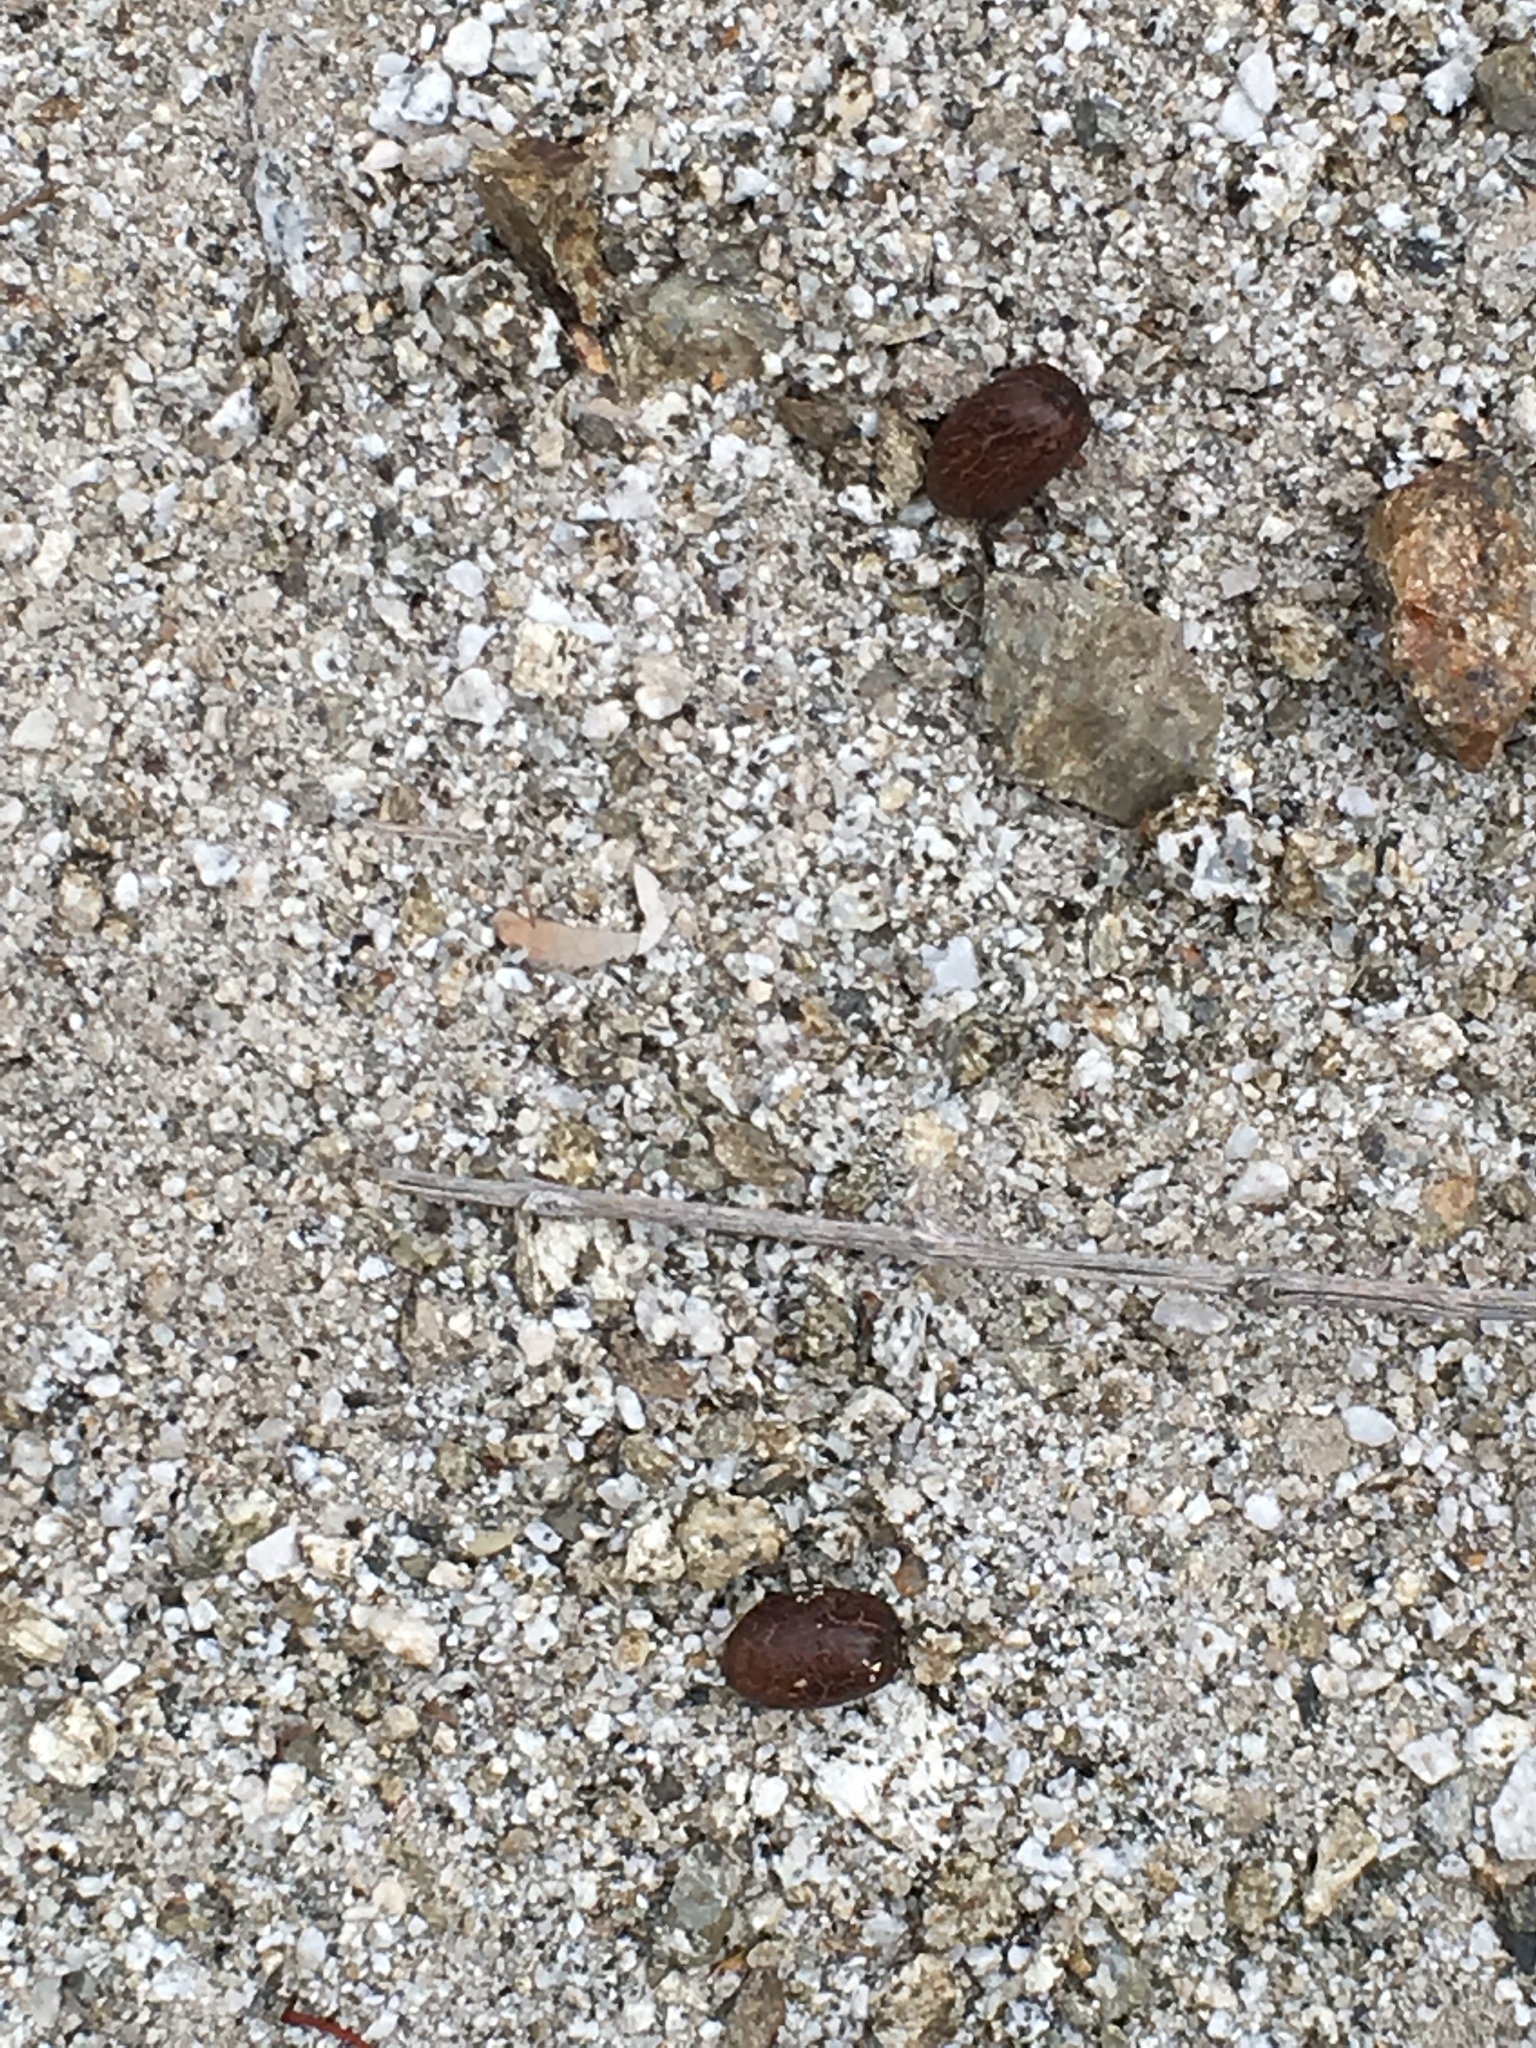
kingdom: Animalia
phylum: Chordata
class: Mammalia
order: Artiodactyla
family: Bovidae
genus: Ovis
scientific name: Ovis canadensis
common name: Bighorn sheep
